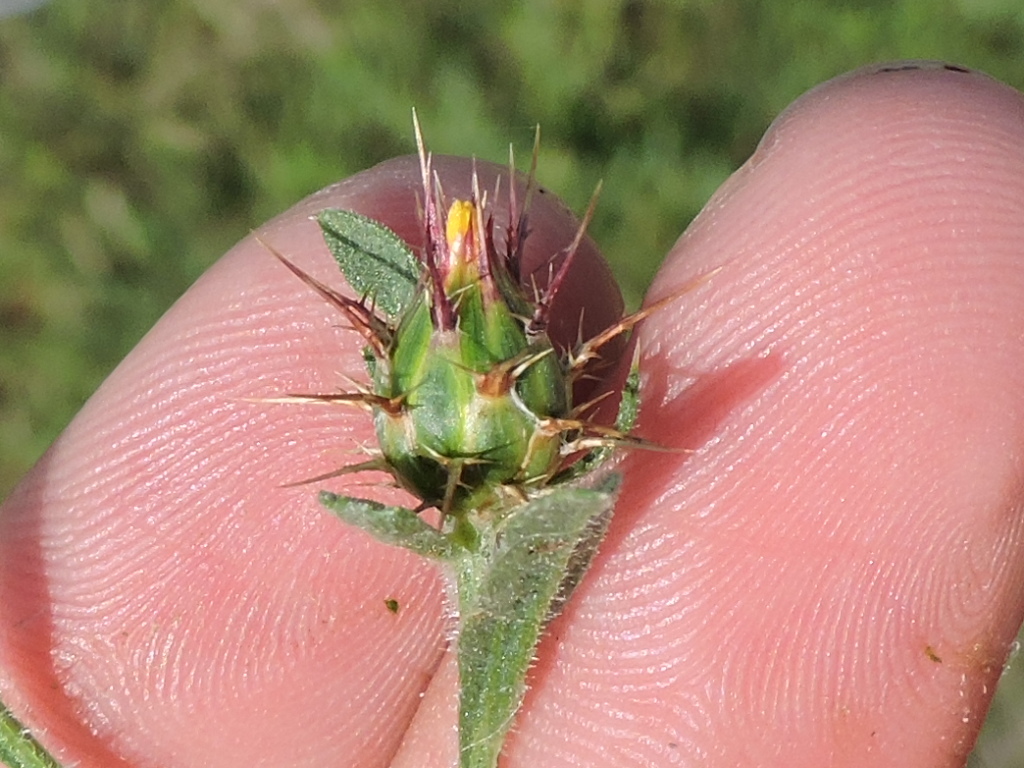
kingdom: Plantae
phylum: Tracheophyta
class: Magnoliopsida
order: Asterales
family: Asteraceae
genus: Centaurea
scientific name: Centaurea melitensis
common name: Maltese star-thistle
